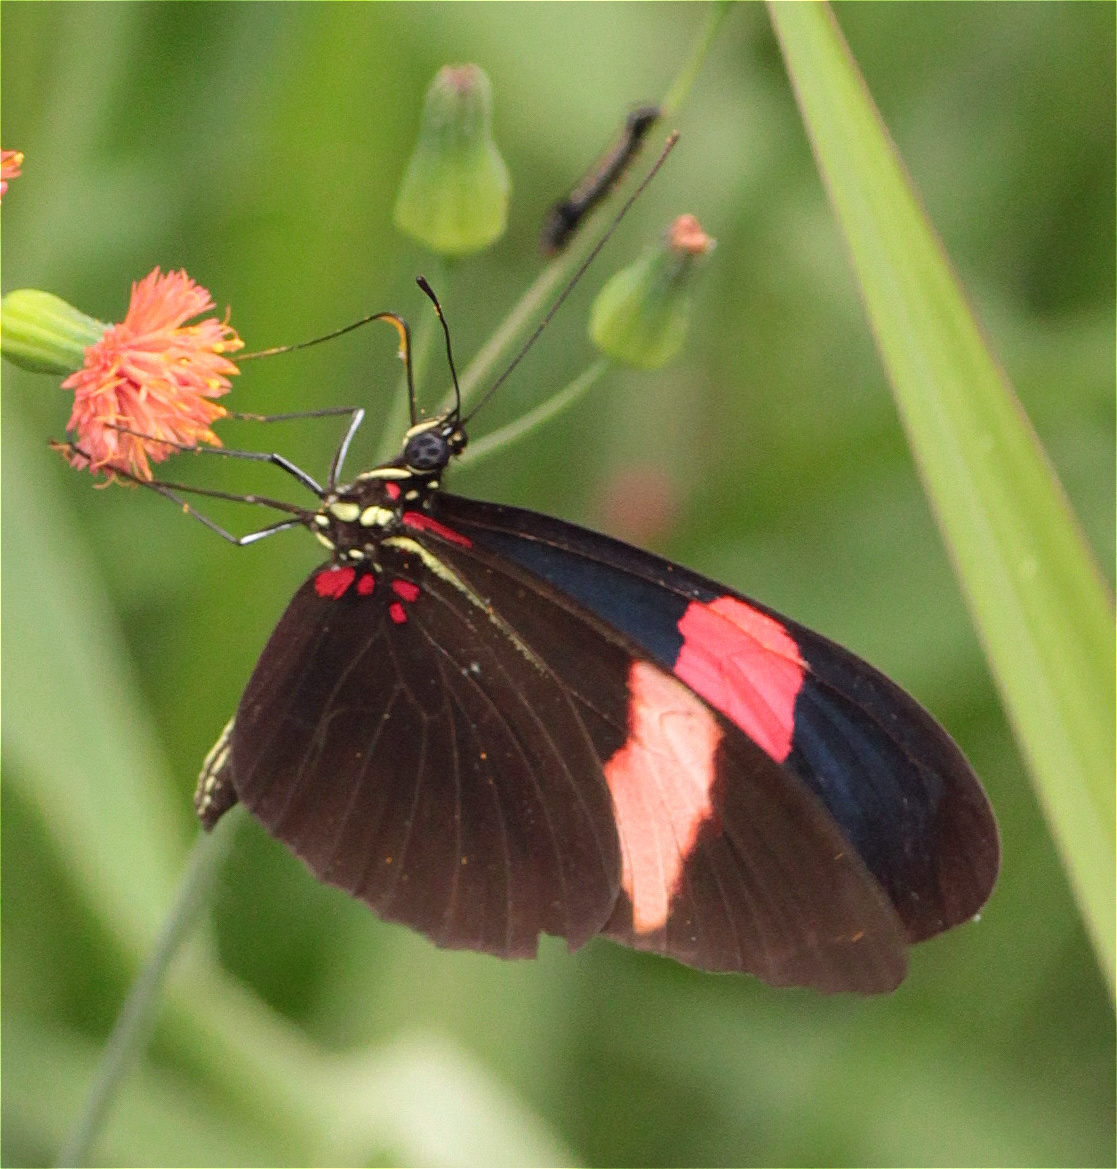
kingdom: Animalia
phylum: Arthropoda
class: Insecta
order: Lepidoptera
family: Nymphalidae
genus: Heliconius
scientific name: Heliconius erato
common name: Common patch longwing
